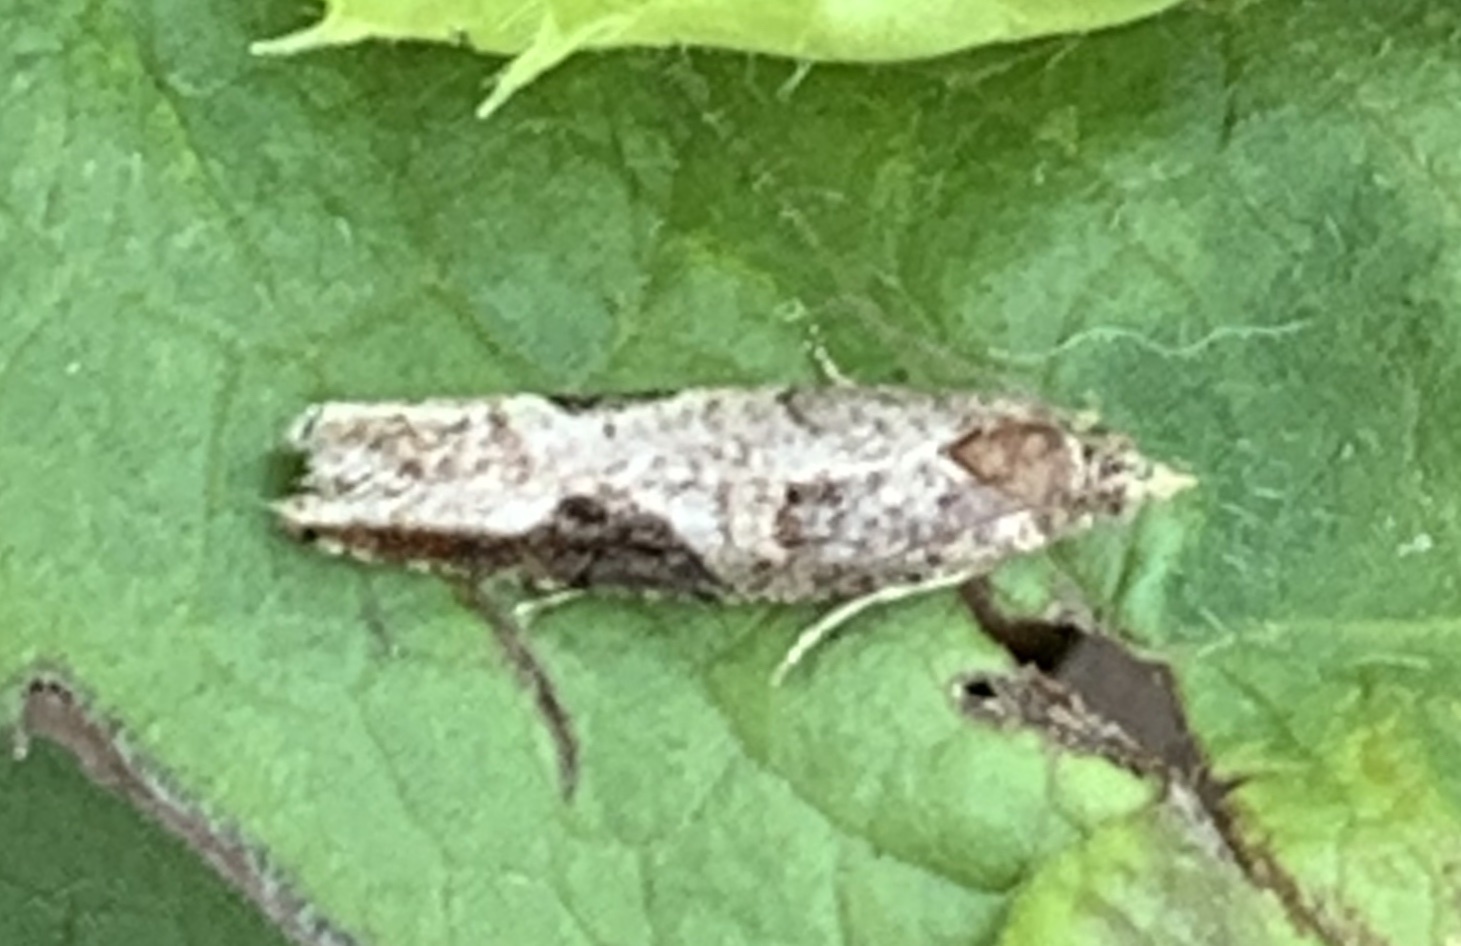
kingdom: Animalia
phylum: Arthropoda
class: Insecta
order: Lepidoptera
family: Tortricidae
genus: Pseudexentera
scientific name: Pseudexentera virginiana
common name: Virginia pseudexentera moth
